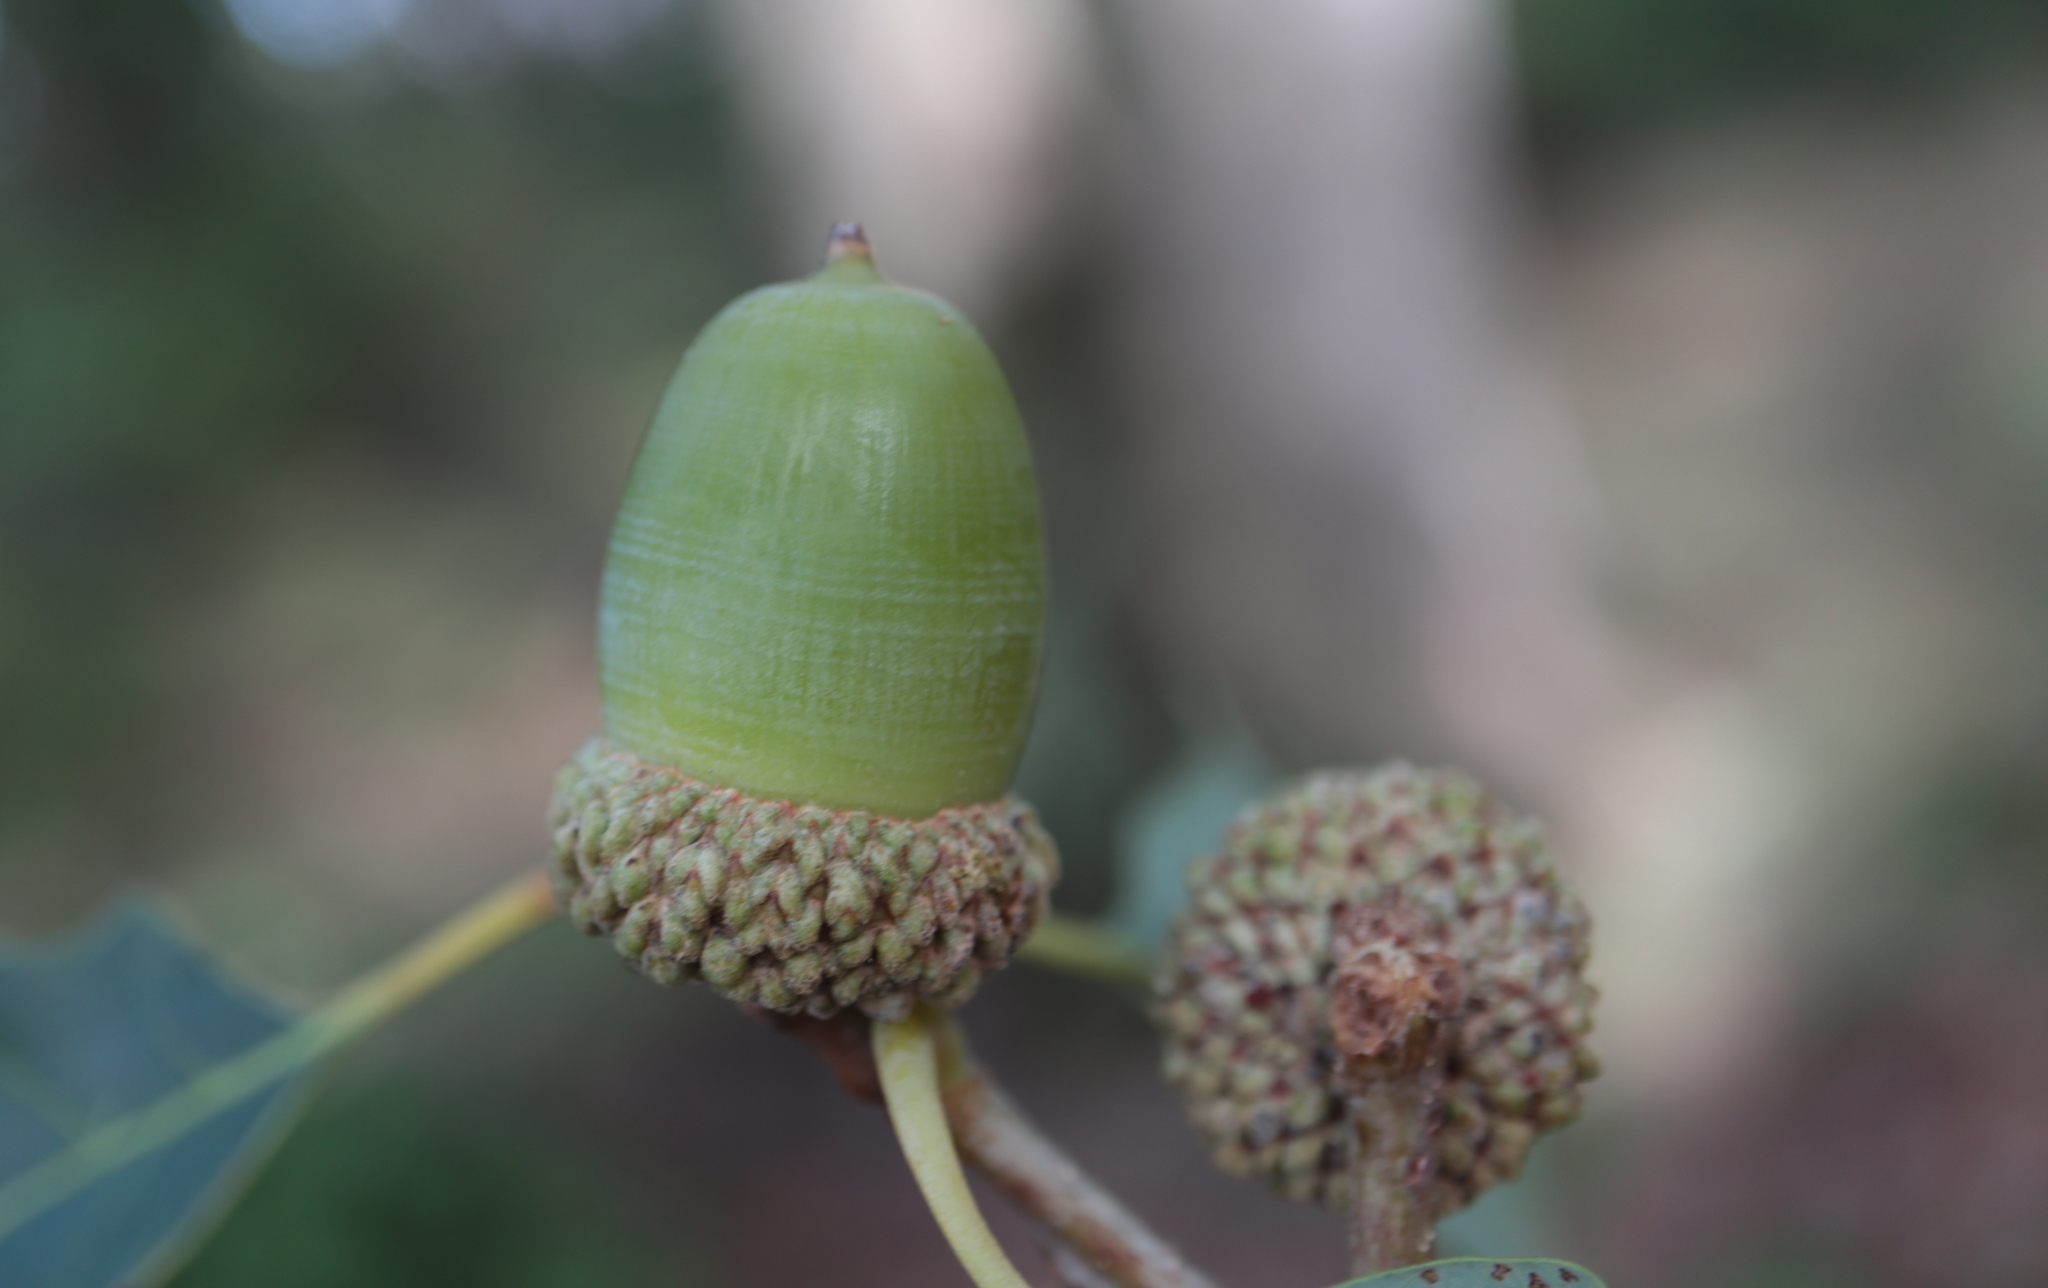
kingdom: Plantae
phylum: Tracheophyta
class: Magnoliopsida
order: Fagales
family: Fagaceae
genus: Quercus
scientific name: Quercus alba
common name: White oak
